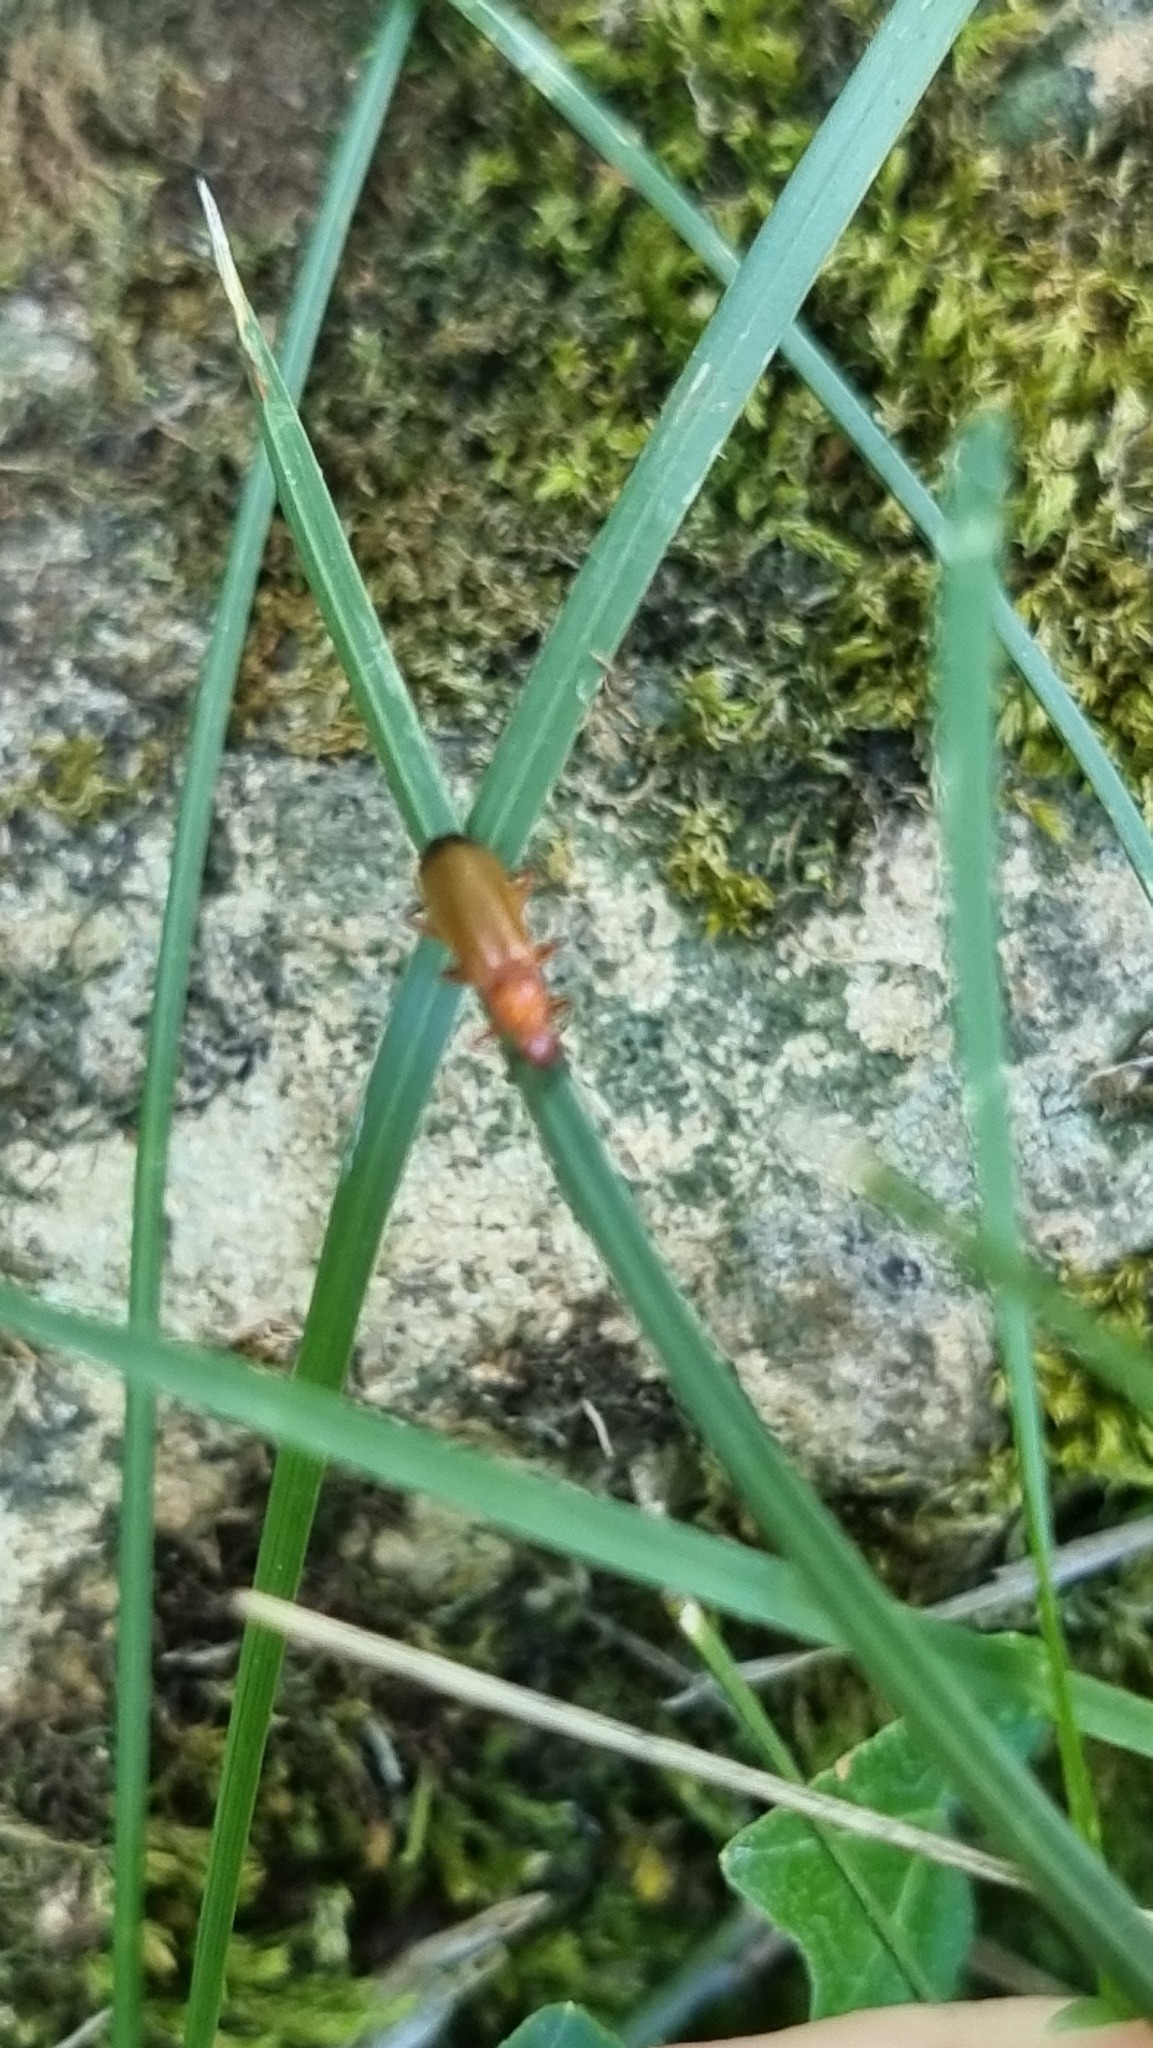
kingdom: Animalia
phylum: Arthropoda
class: Insecta
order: Coleoptera
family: Cantharidae
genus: Rhagonycha
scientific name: Rhagonycha fulva
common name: Common red soldier beetle
